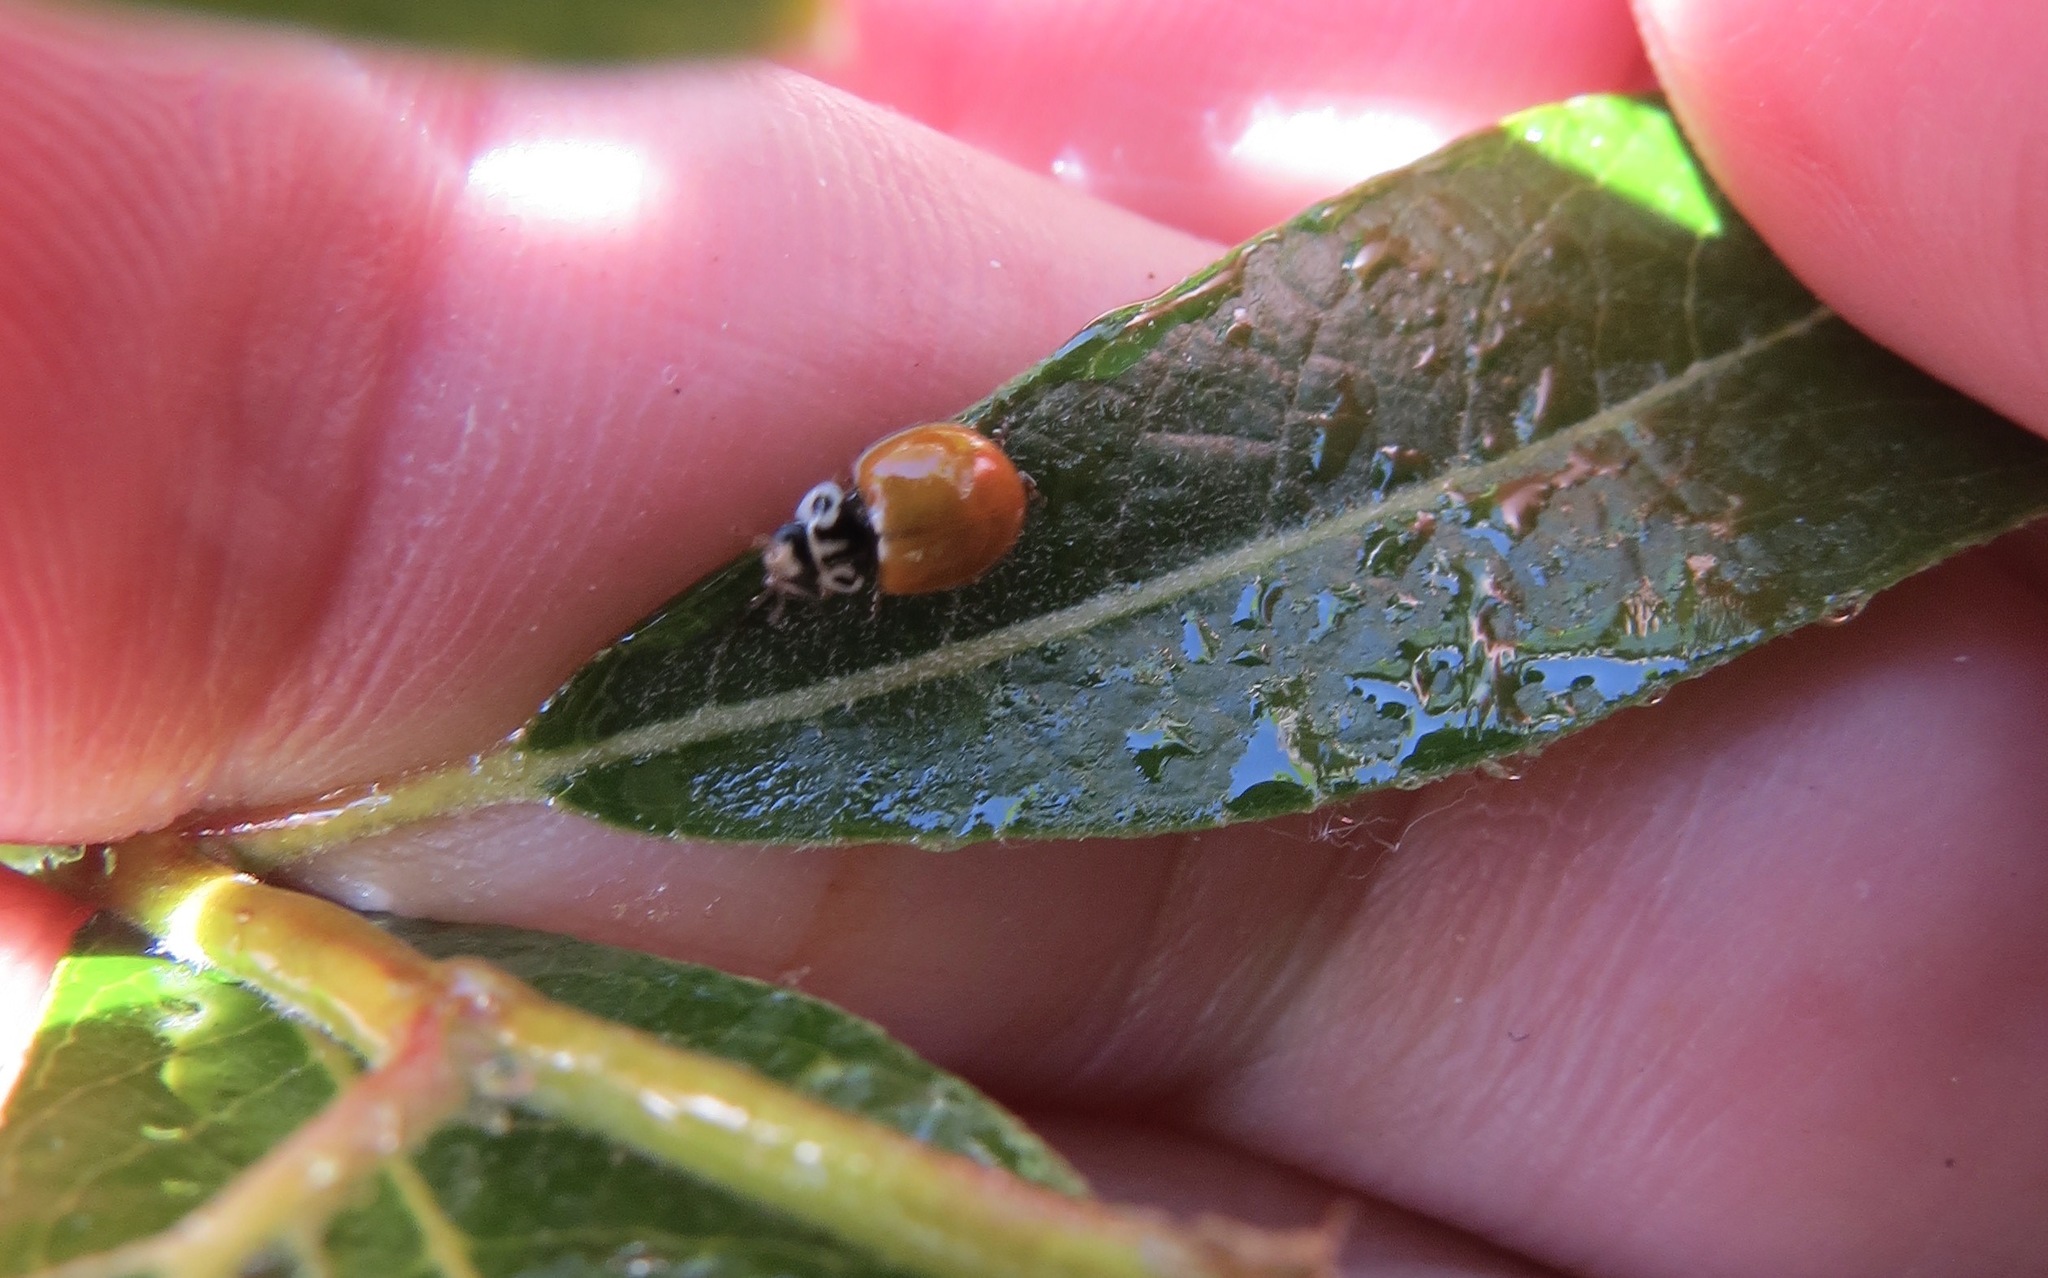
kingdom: Animalia
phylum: Arthropoda
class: Insecta
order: Coleoptera
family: Coccinellidae
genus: Cycloneda
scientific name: Cycloneda polita
